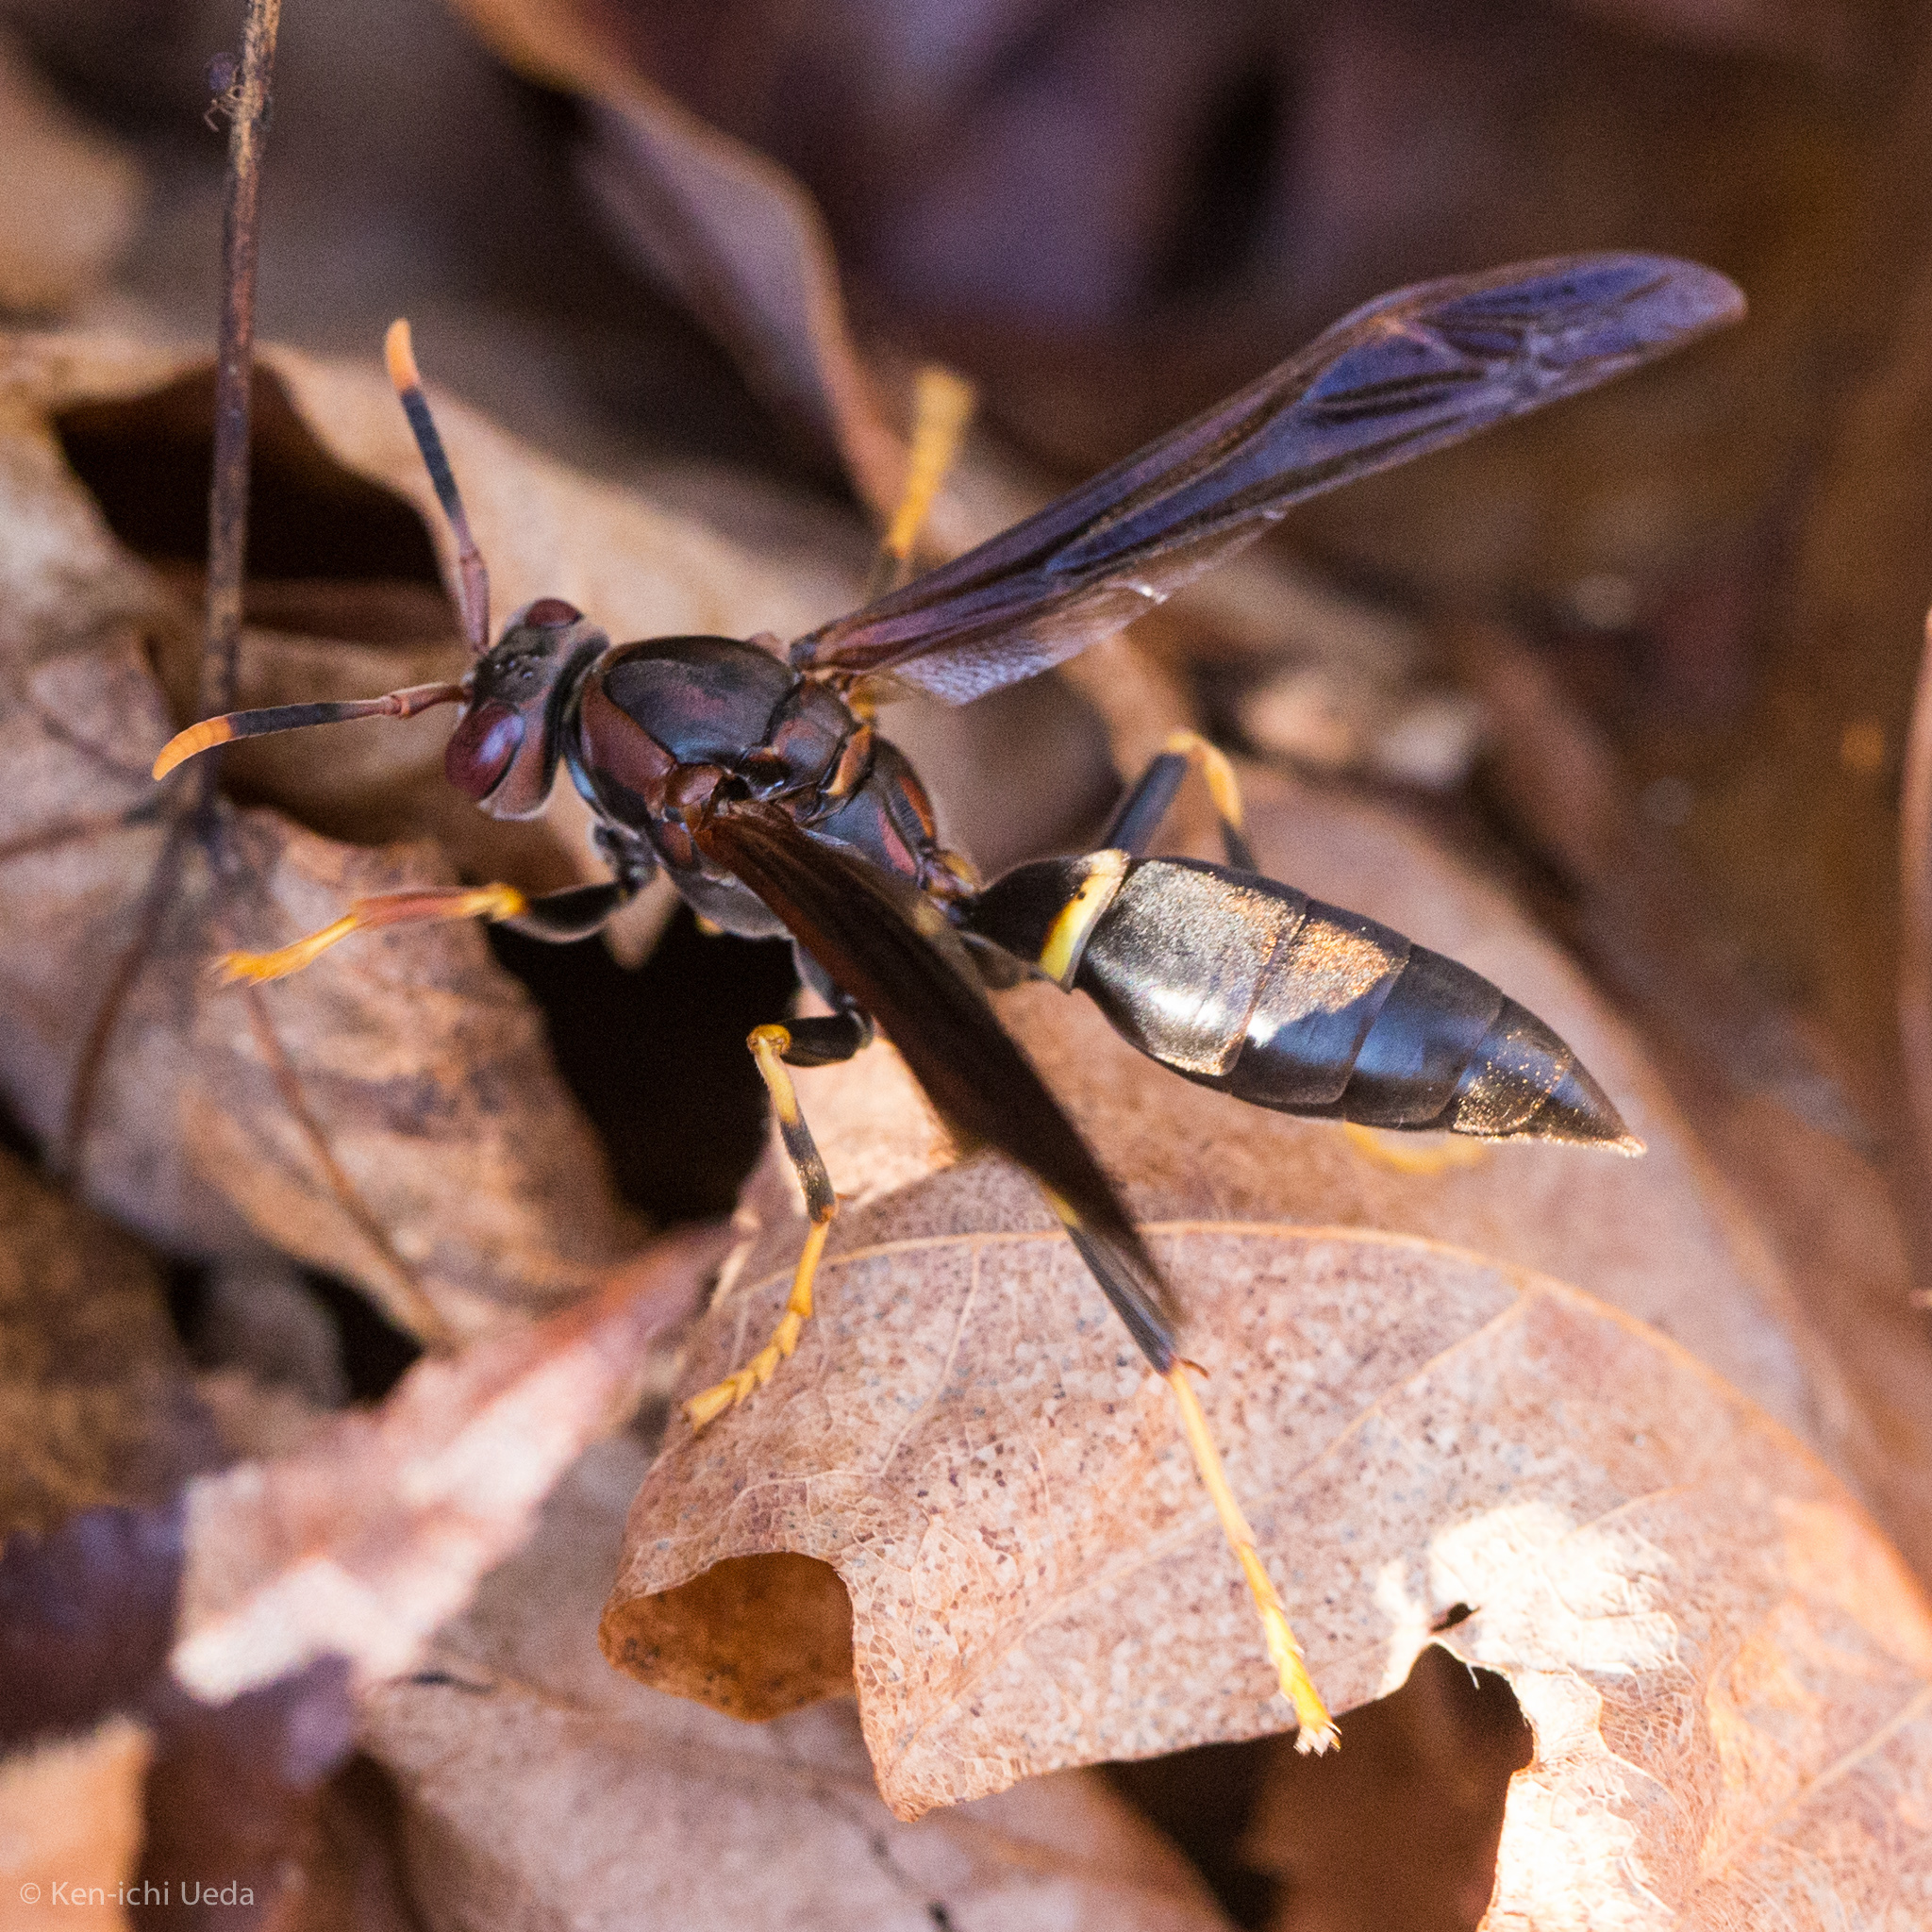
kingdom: Animalia
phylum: Arthropoda
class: Insecta
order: Hymenoptera
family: Eumenidae
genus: Polistes
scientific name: Polistes annularis
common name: Ringed paper wasp
